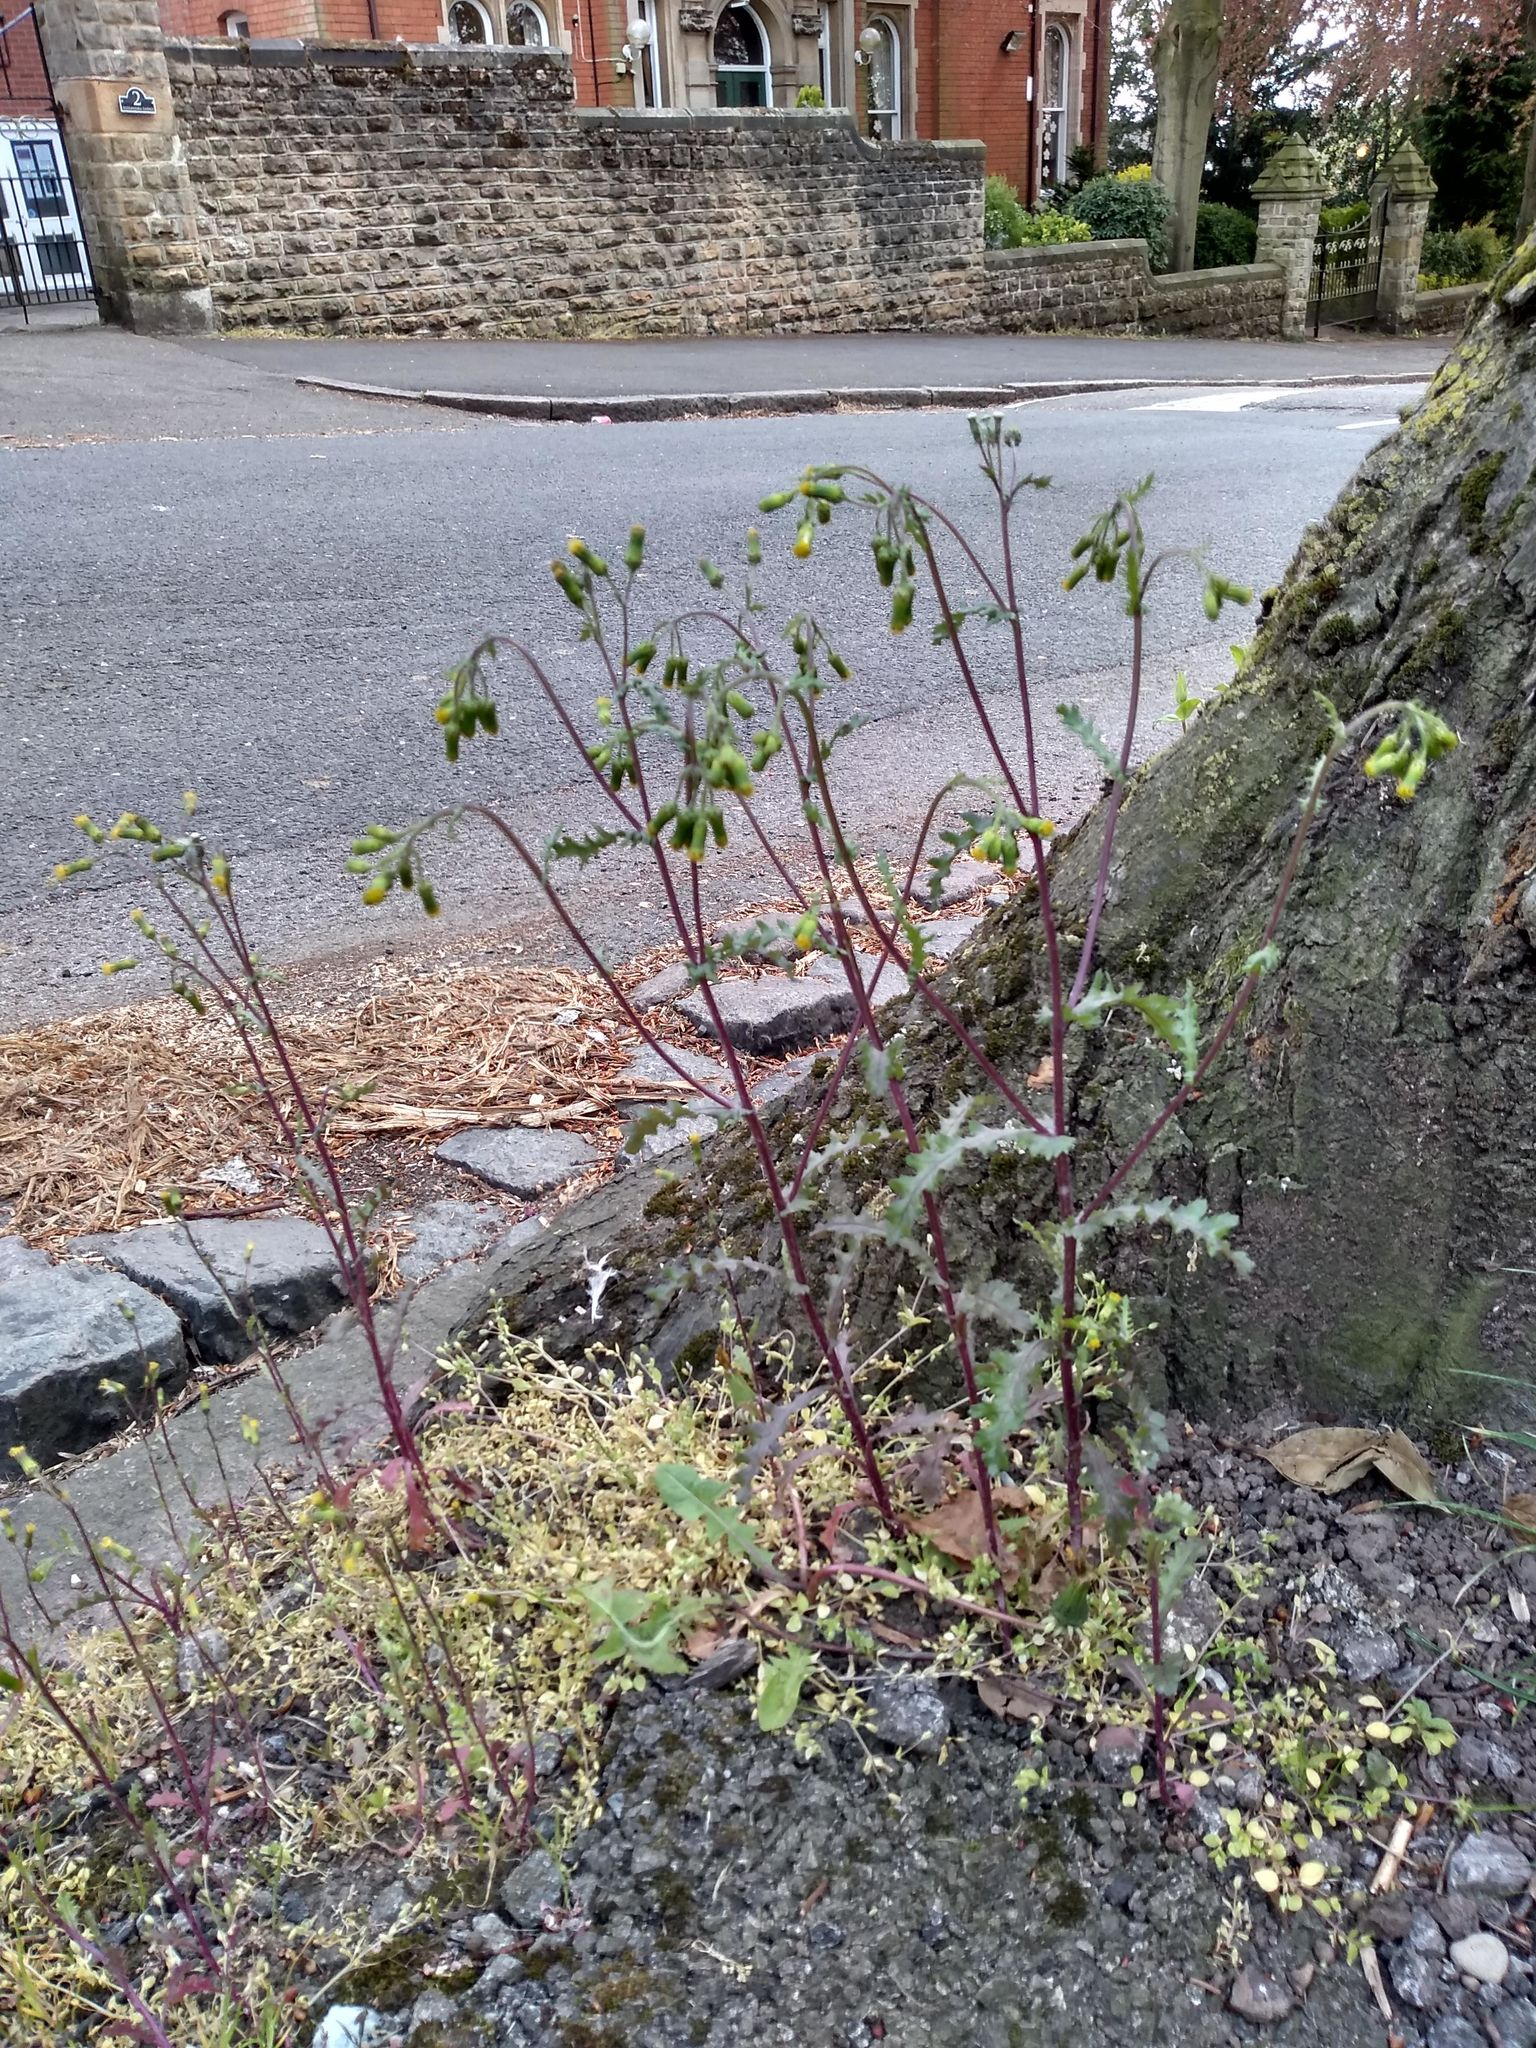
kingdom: Plantae
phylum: Tracheophyta
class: Magnoliopsida
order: Asterales
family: Asteraceae
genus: Senecio
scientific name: Senecio vulgaris
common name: Old-man-in-the-spring
